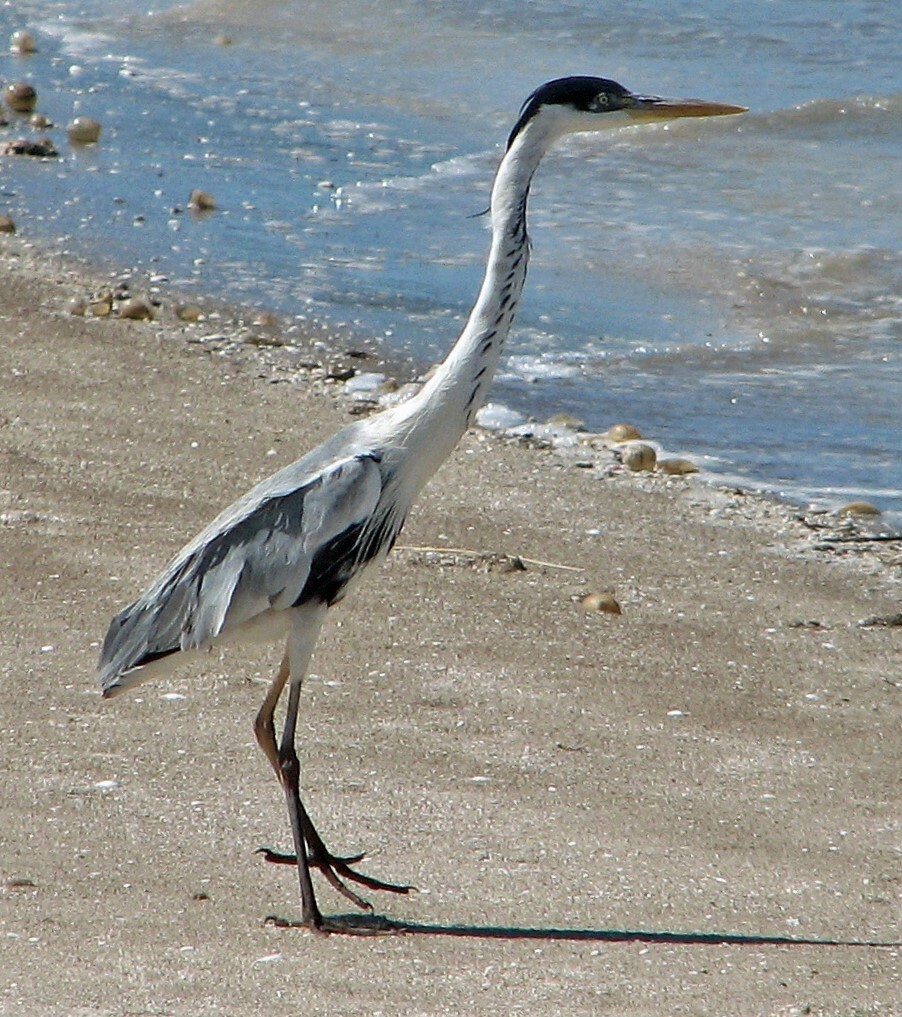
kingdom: Animalia
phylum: Chordata
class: Aves
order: Pelecaniformes
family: Ardeidae
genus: Ardea
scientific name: Ardea cocoi
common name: Cocoi heron
